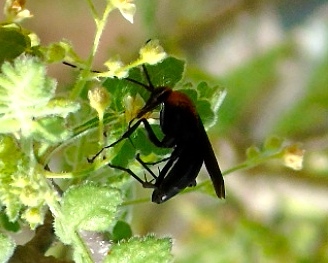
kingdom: Animalia
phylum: Arthropoda
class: Insecta
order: Hymenoptera
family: Pompilidae
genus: Notocyphus
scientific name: Notocyphus dorsalis
